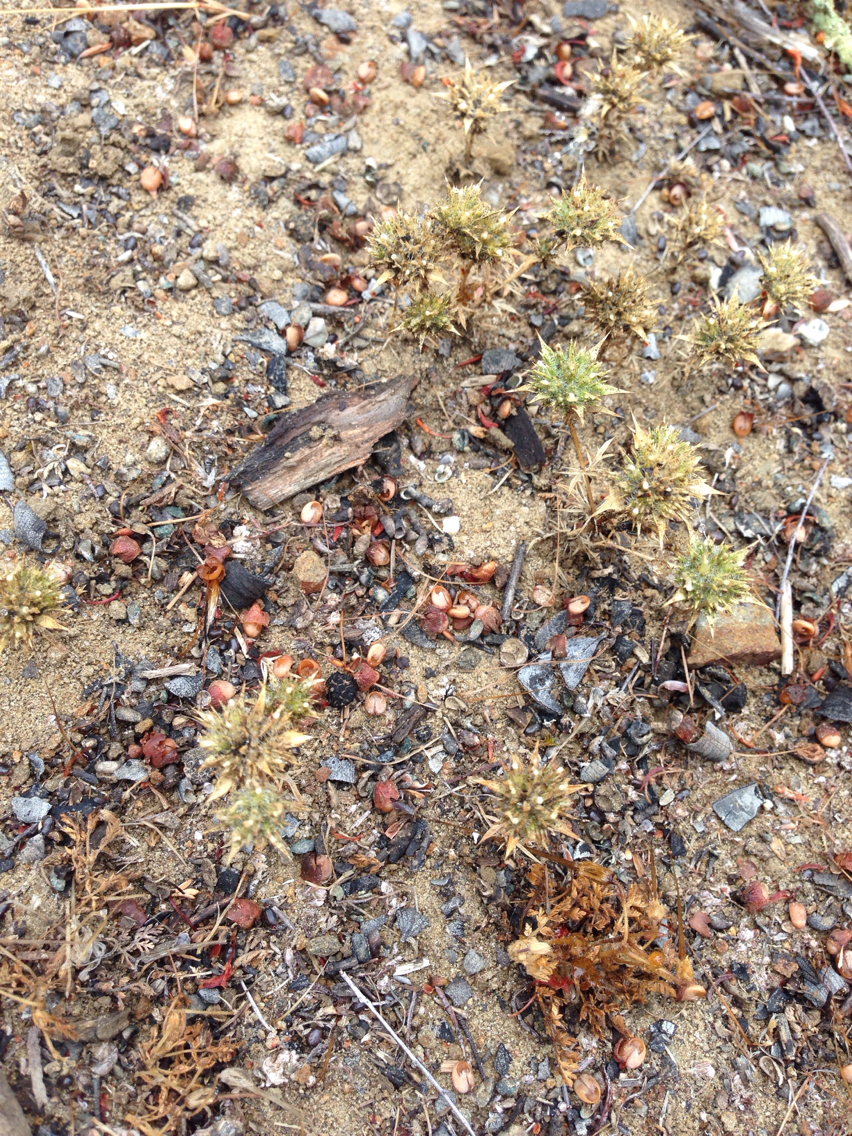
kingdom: Plantae
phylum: Tracheophyta
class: Magnoliopsida
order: Ericales
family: Polemoniaceae
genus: Navarretia
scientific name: Navarretia mellita
